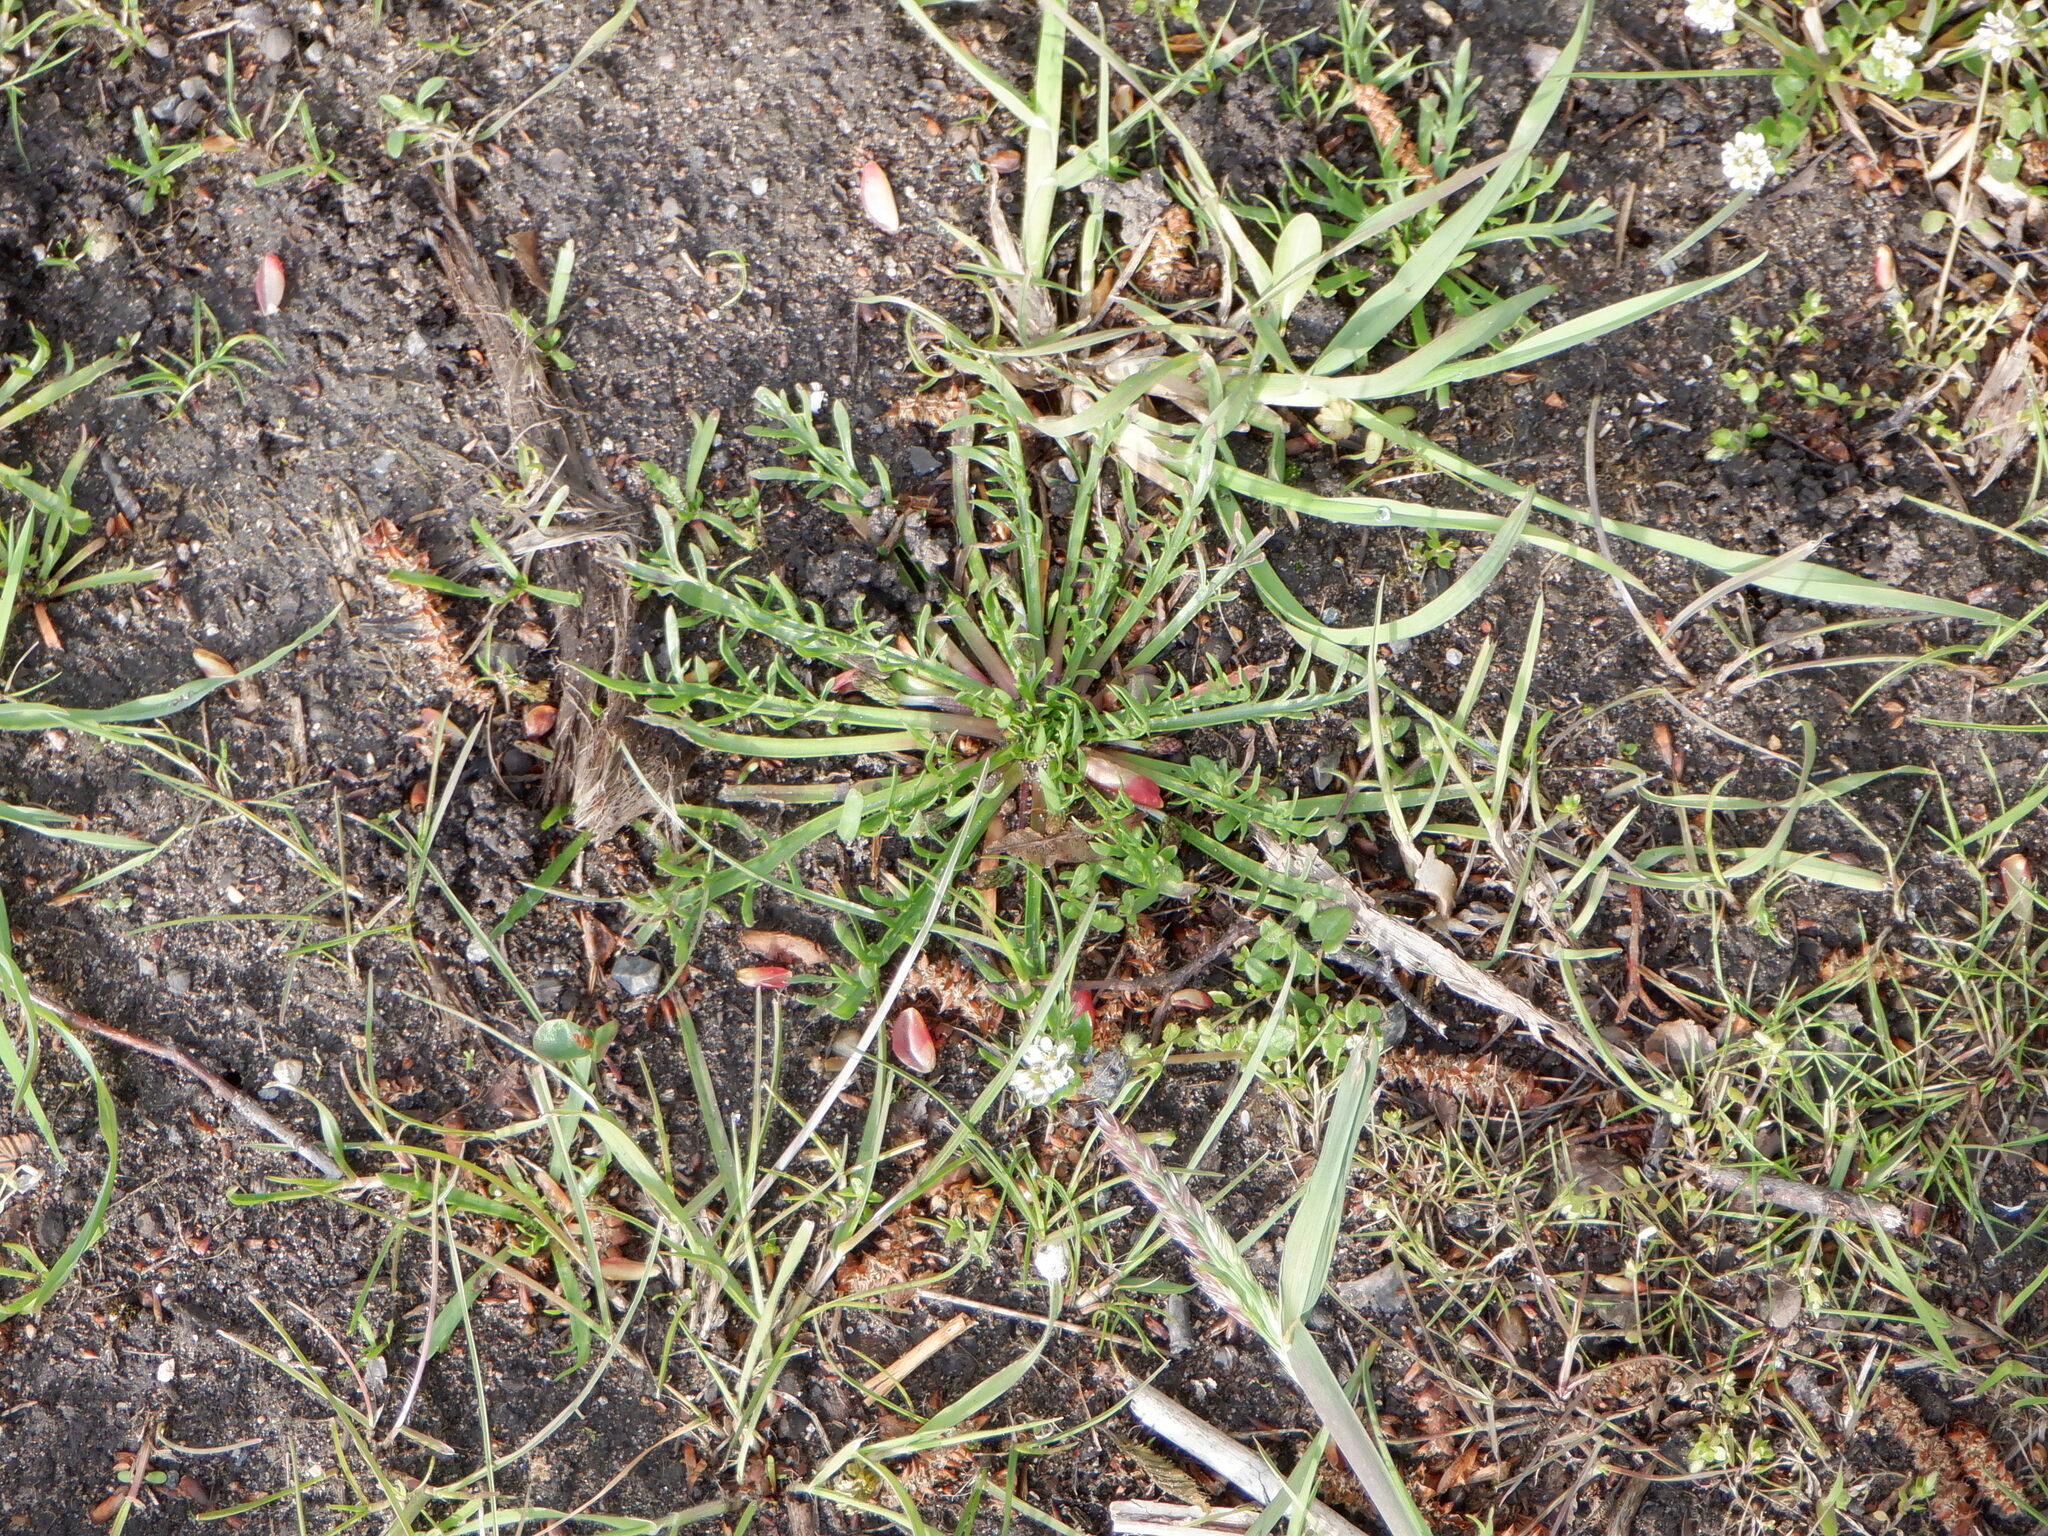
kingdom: Plantae
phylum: Tracheophyta
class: Magnoliopsida
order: Lamiales
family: Plantaginaceae
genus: Plantago
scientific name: Plantago coronopus
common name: Buck's-horn plantain
